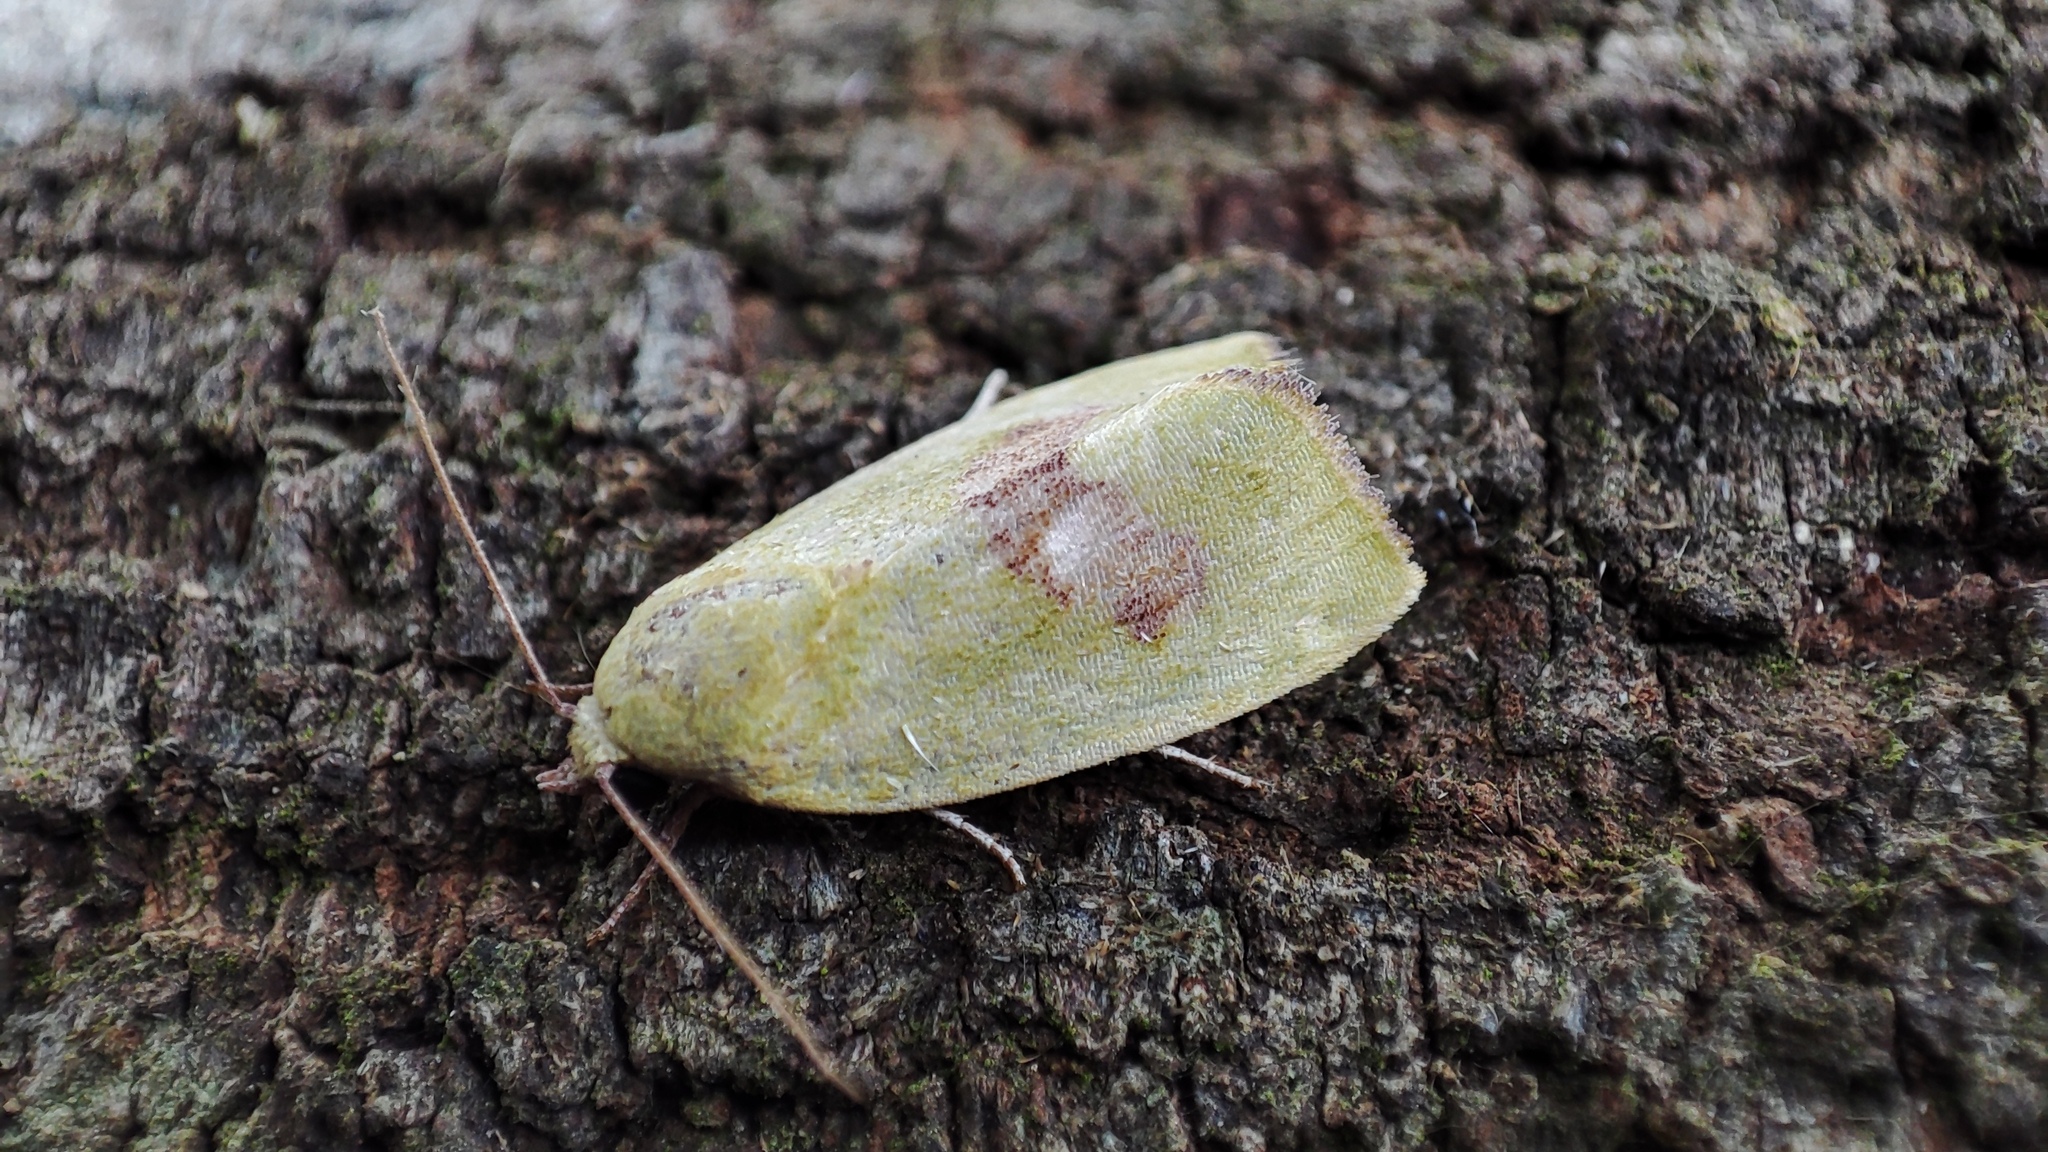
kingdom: Animalia
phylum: Arthropoda
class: Insecta
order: Lepidoptera
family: Nolidae
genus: Earias
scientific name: Earias biplaga
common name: Spiny bollworm
